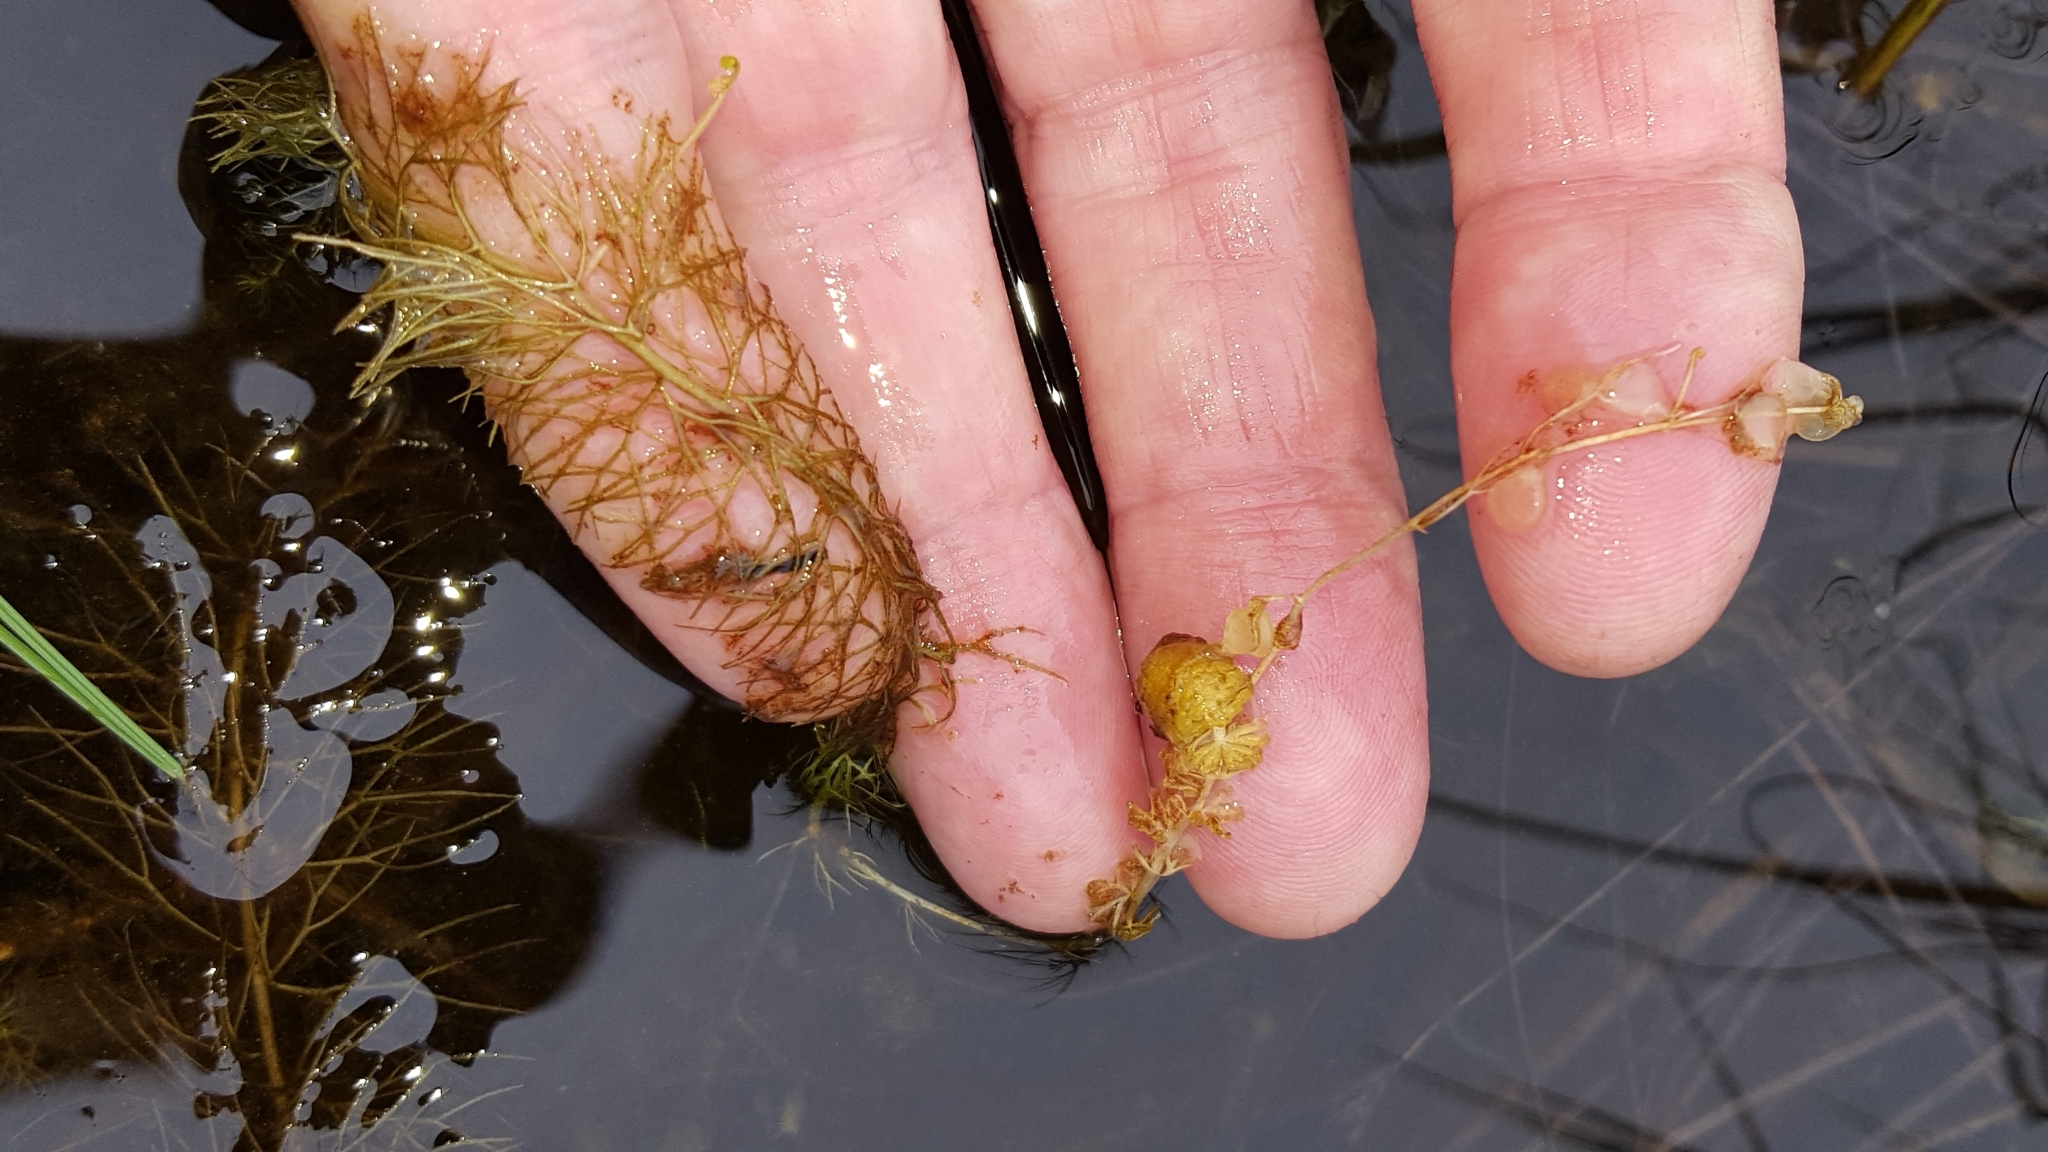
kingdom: Plantae
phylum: Tracheophyta
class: Magnoliopsida
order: Lamiales
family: Lentibulariaceae
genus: Utricularia
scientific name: Utricularia intermedia
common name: Intermediate bladderwort
